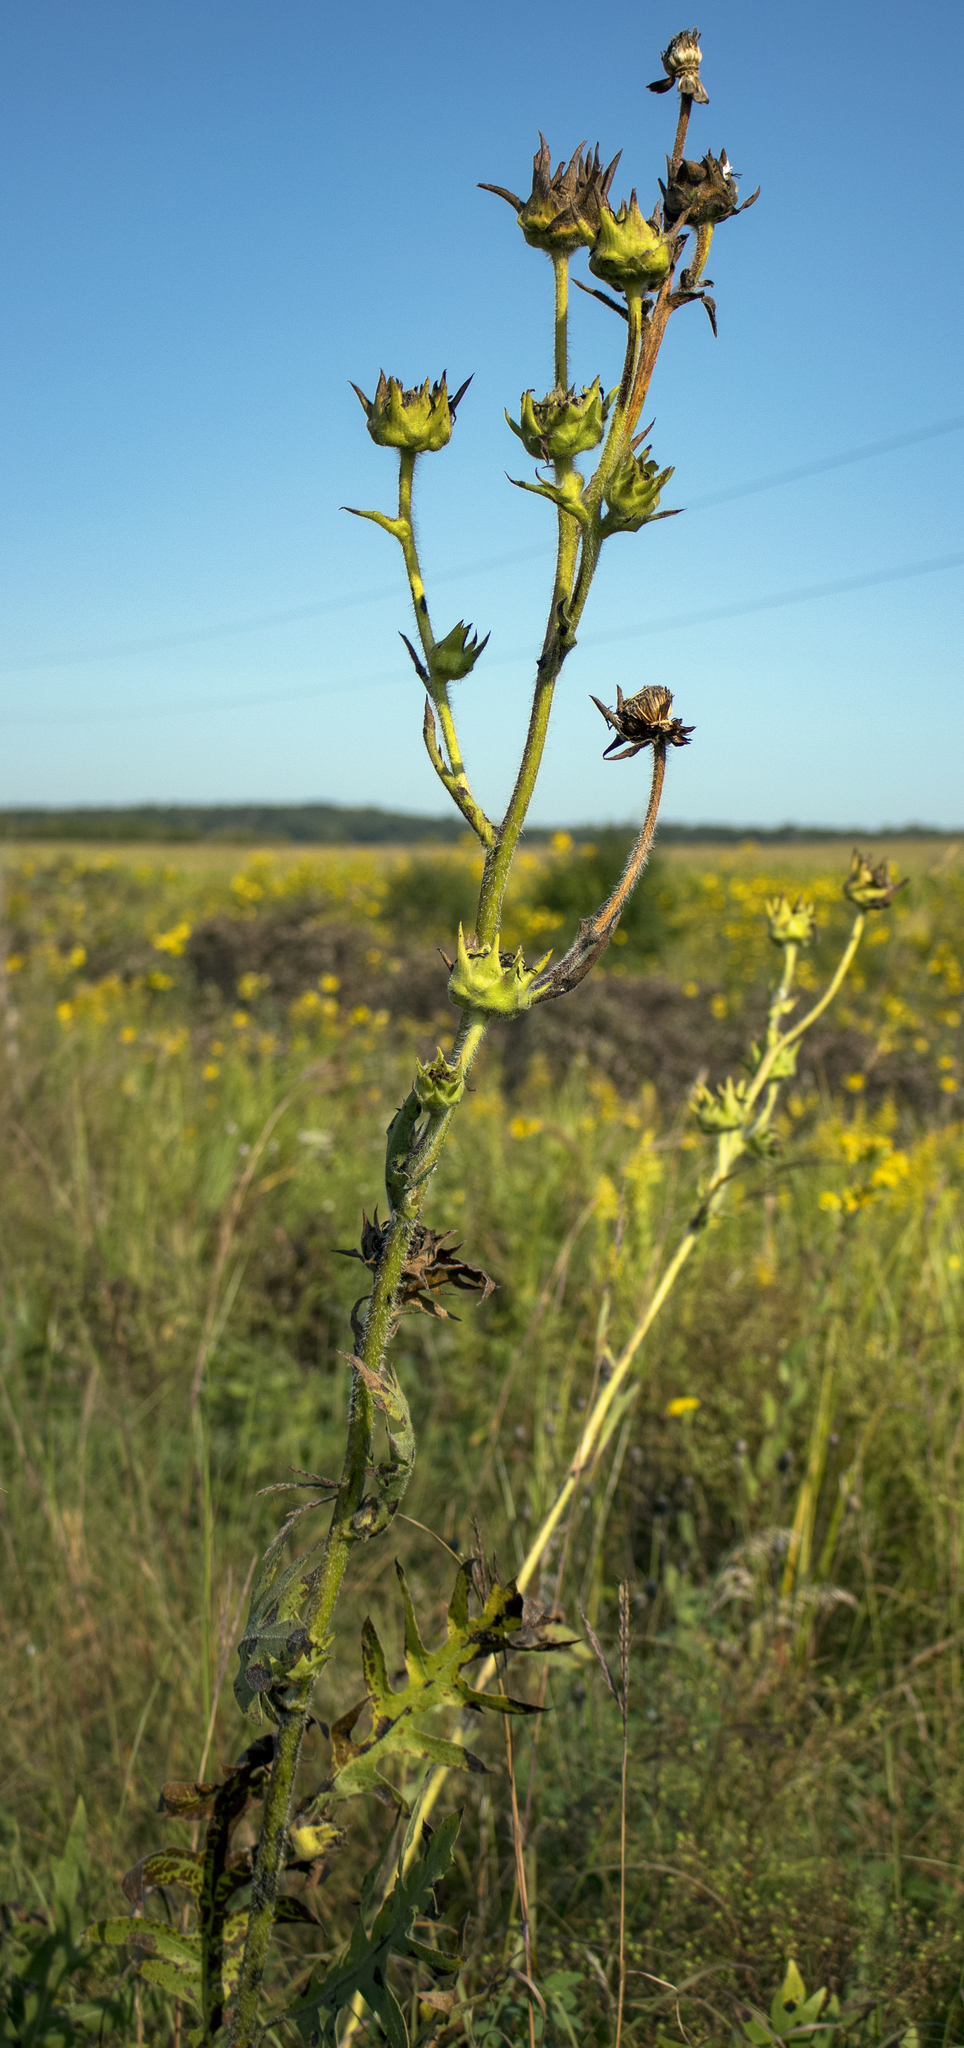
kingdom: Plantae
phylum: Tracheophyta
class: Magnoliopsida
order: Asterales
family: Asteraceae
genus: Silphium
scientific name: Silphium laciniatum
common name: Polarplant
